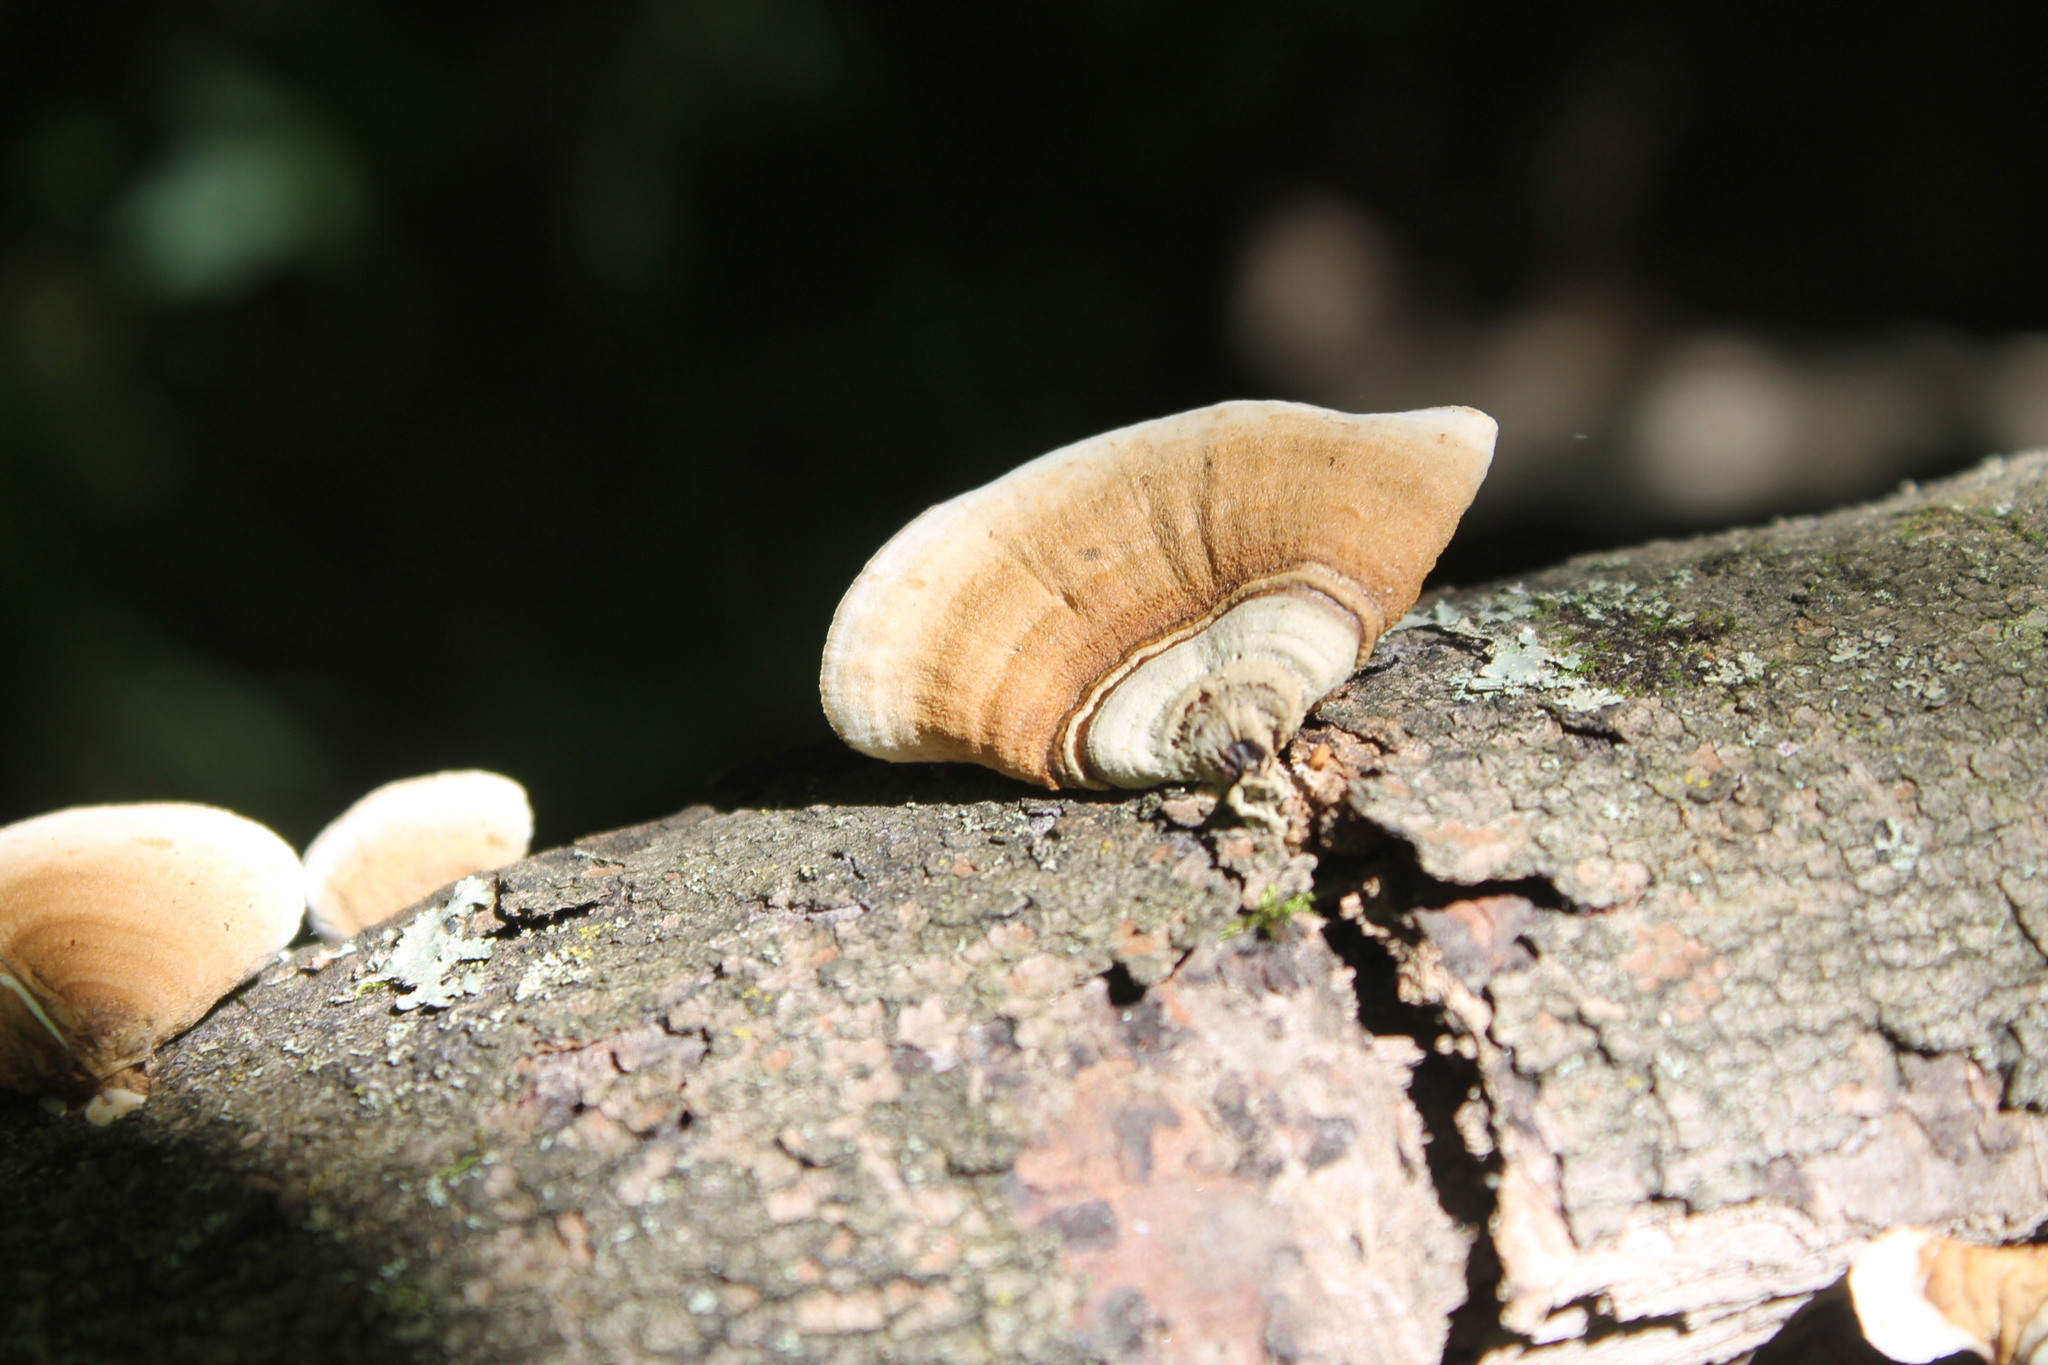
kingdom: Fungi
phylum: Basidiomycota
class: Agaricomycetes
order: Russulales
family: Stereaceae
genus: Stereum
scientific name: Stereum lobatum
